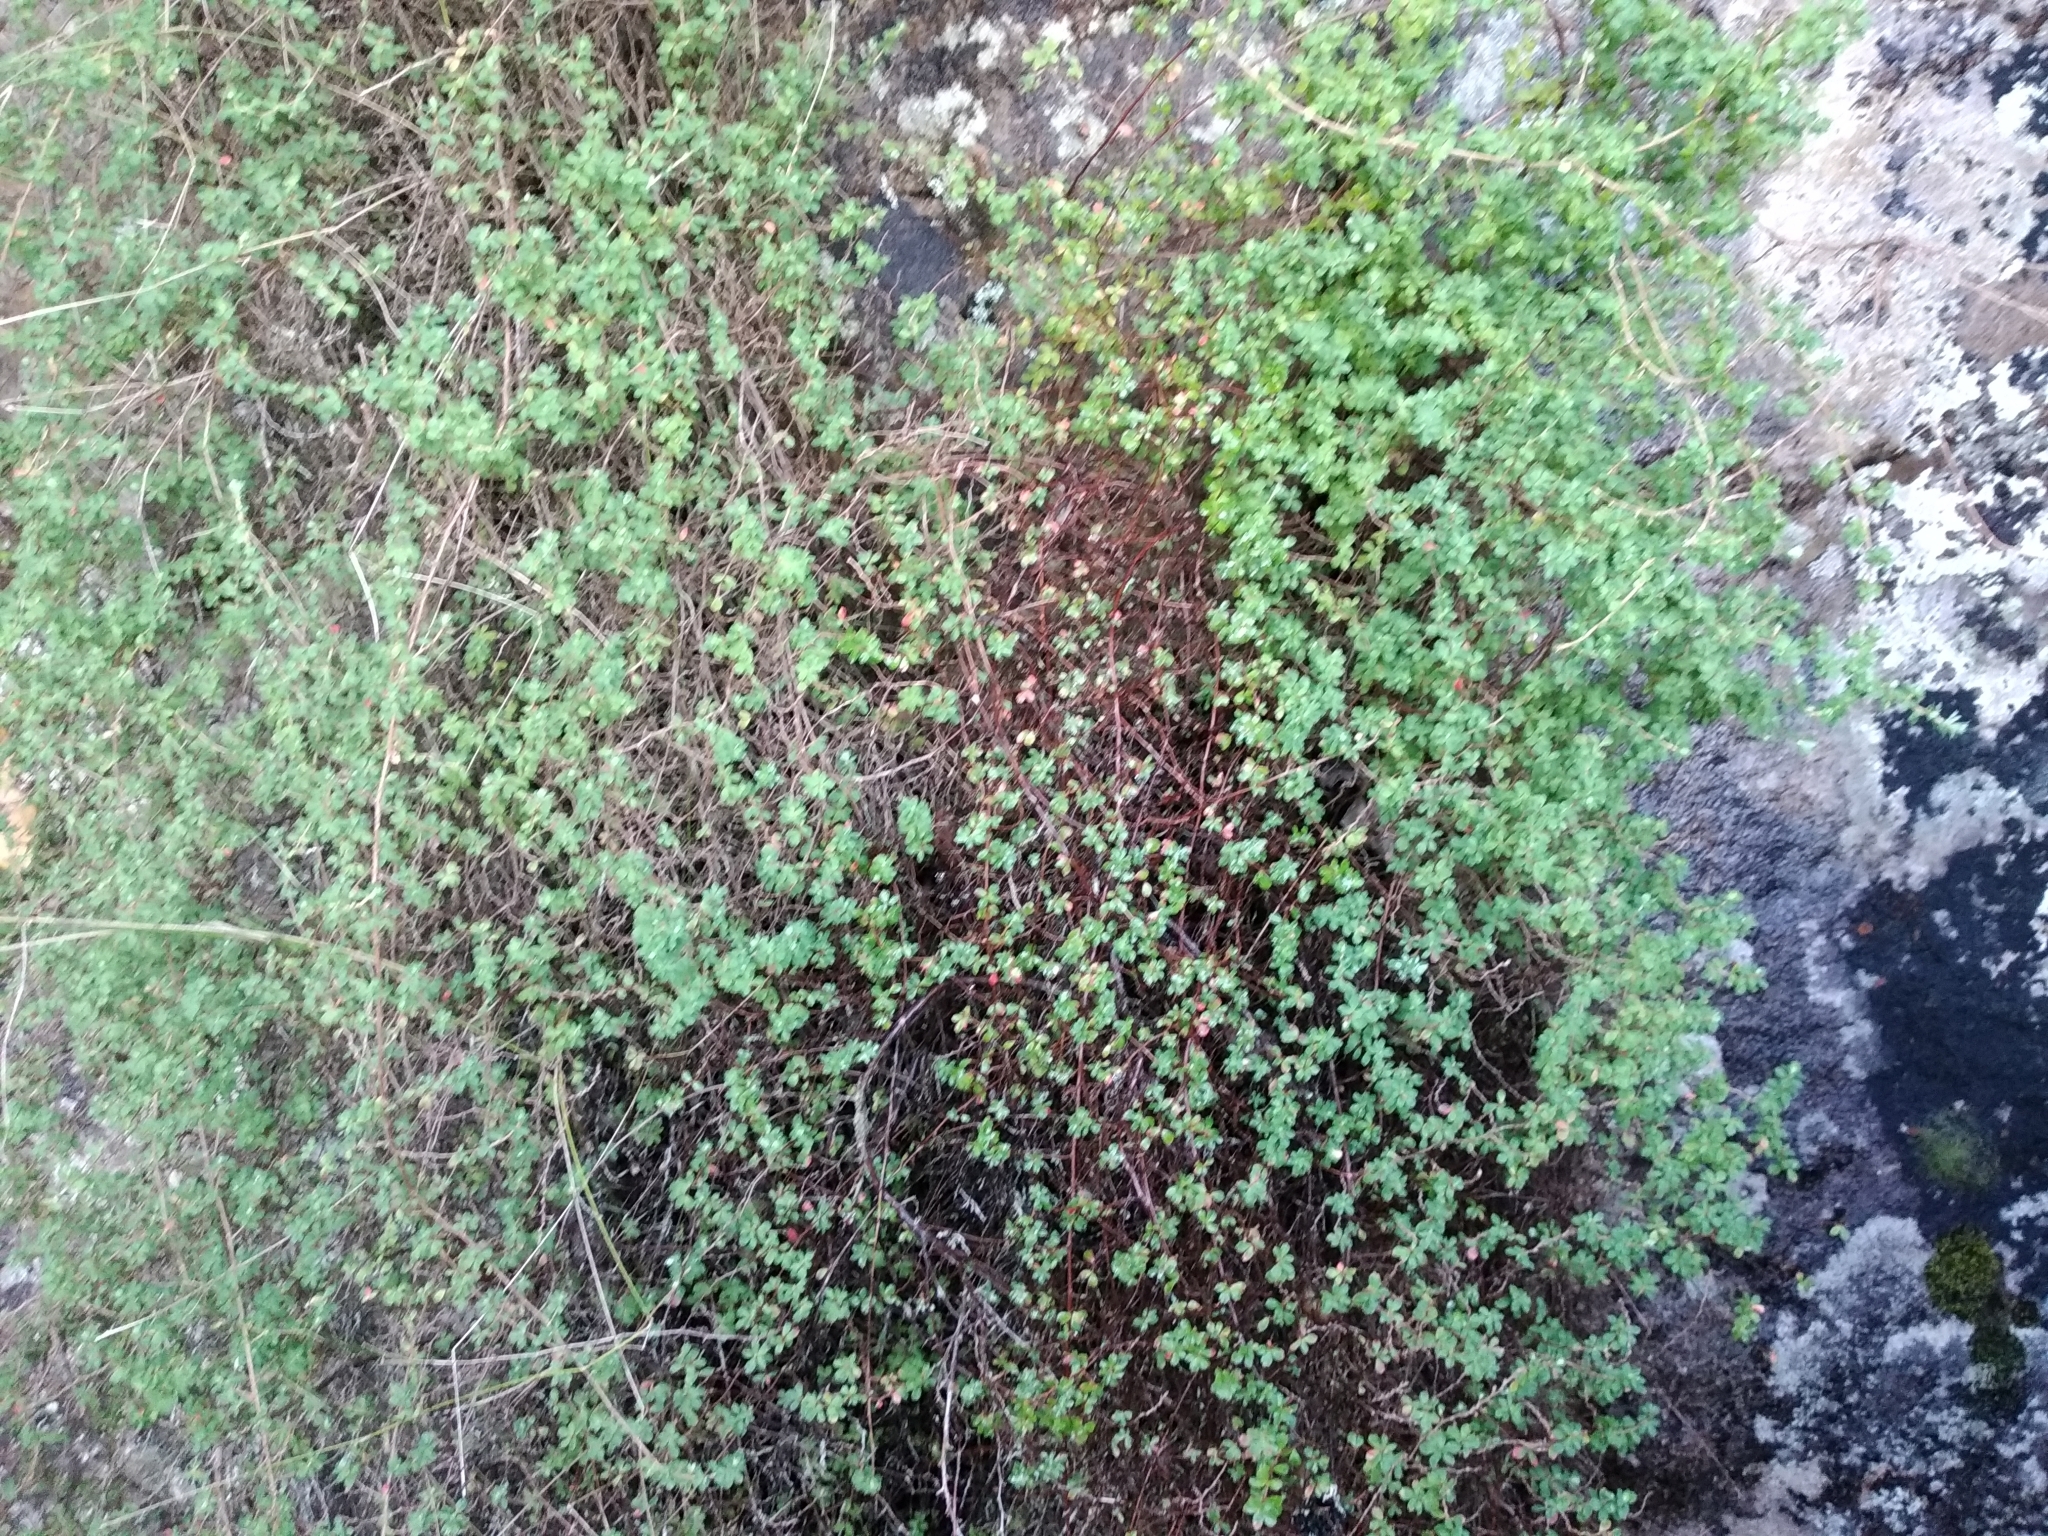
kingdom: Plantae
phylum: Tracheophyta
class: Magnoliopsida
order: Rosales
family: Rosaceae
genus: Cliffortia
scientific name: Cliffortia dentata
